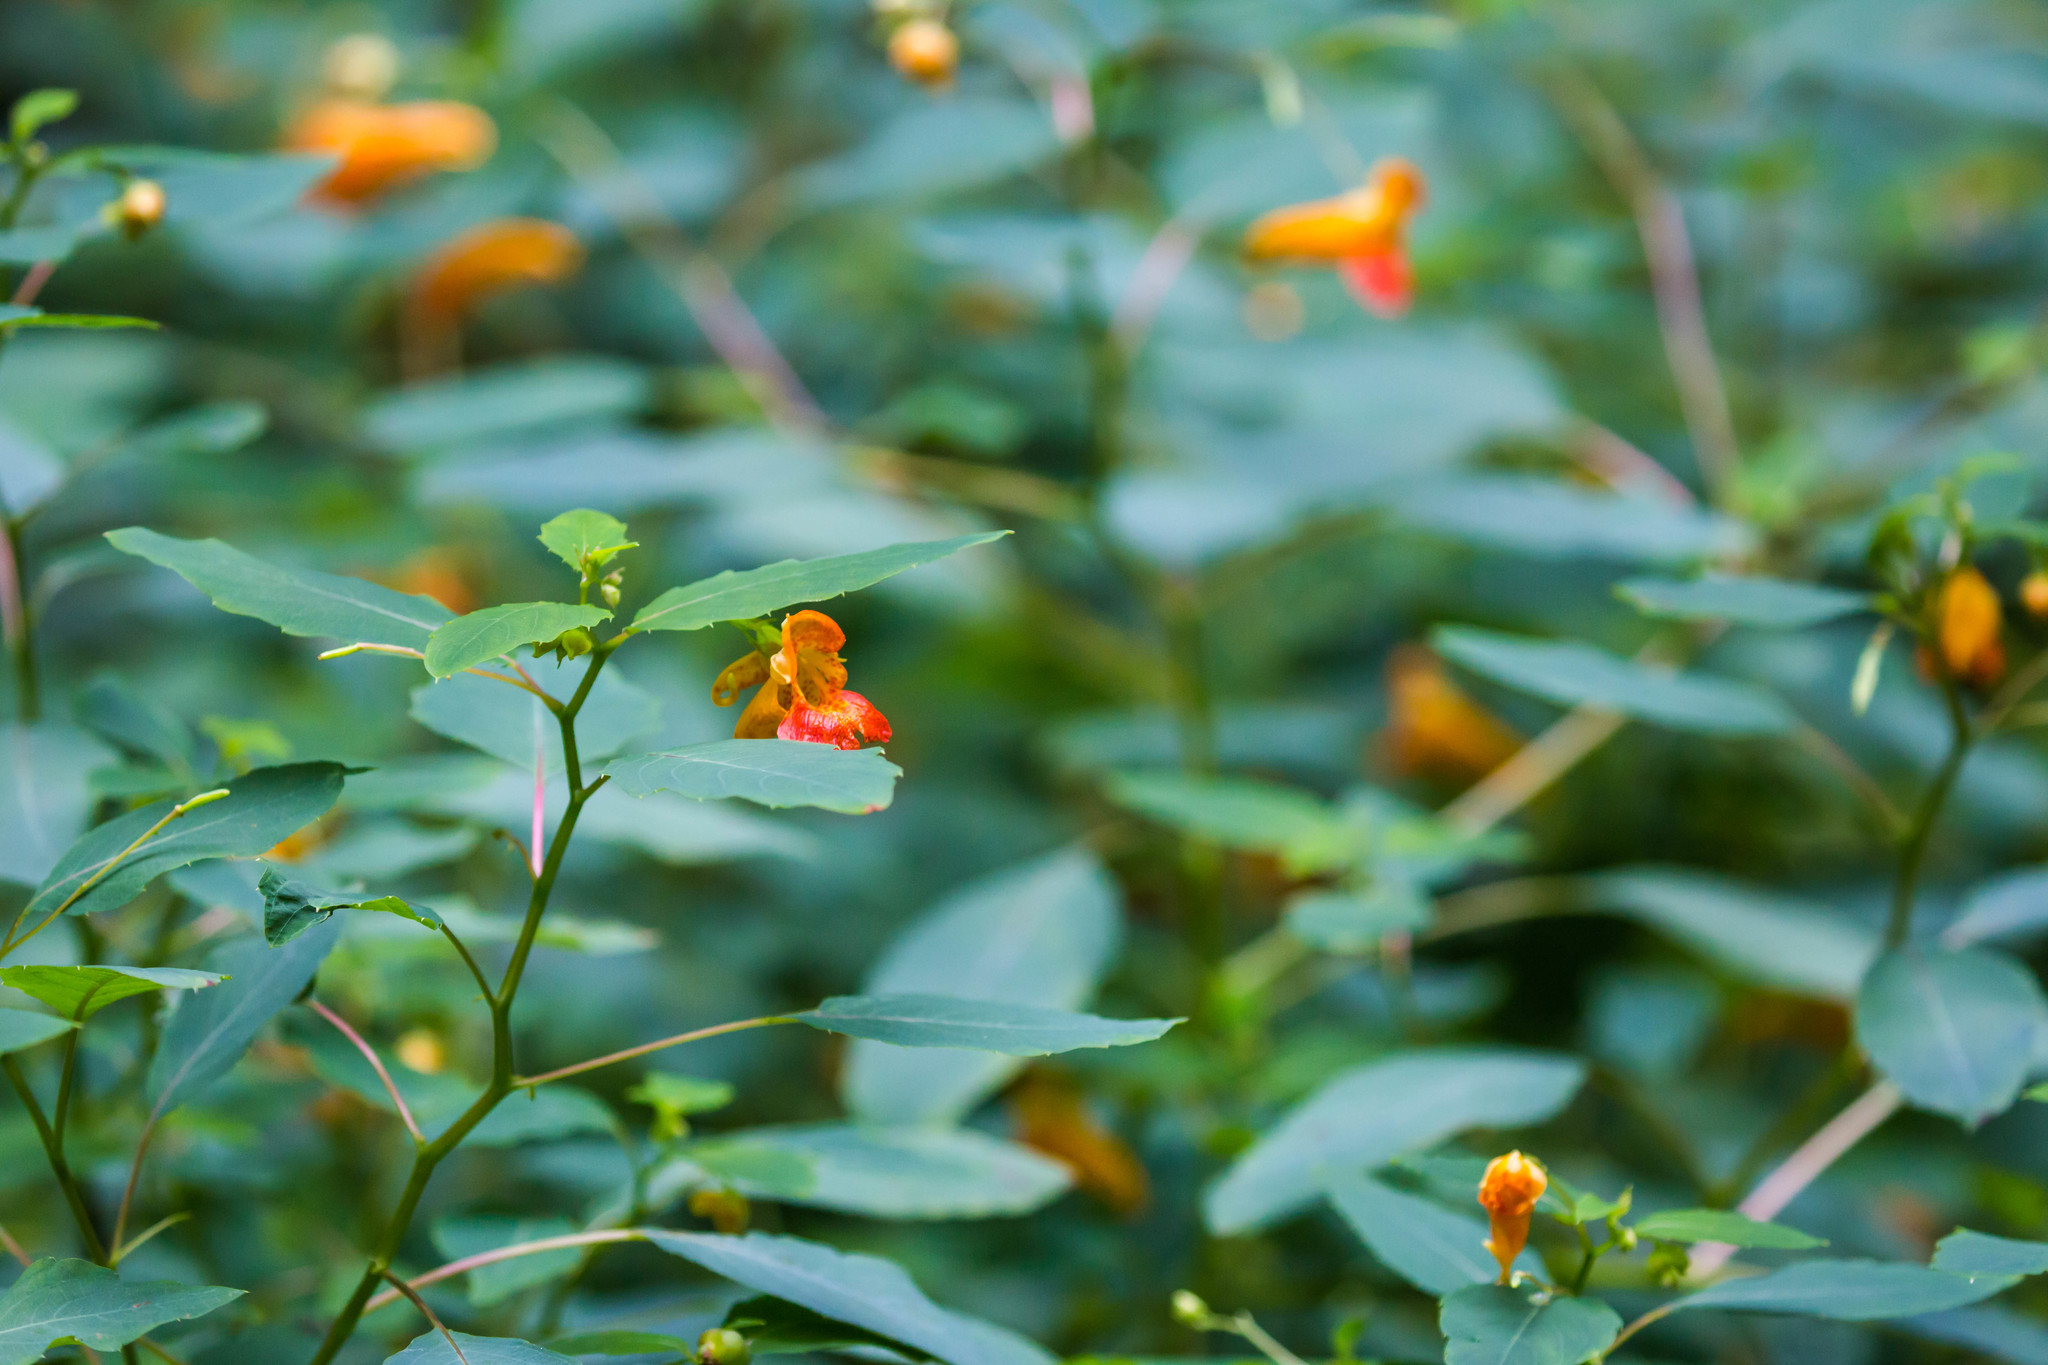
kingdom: Plantae
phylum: Tracheophyta
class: Magnoliopsida
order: Ericales
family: Balsaminaceae
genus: Impatiens
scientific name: Impatiens capensis
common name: Orange balsam
